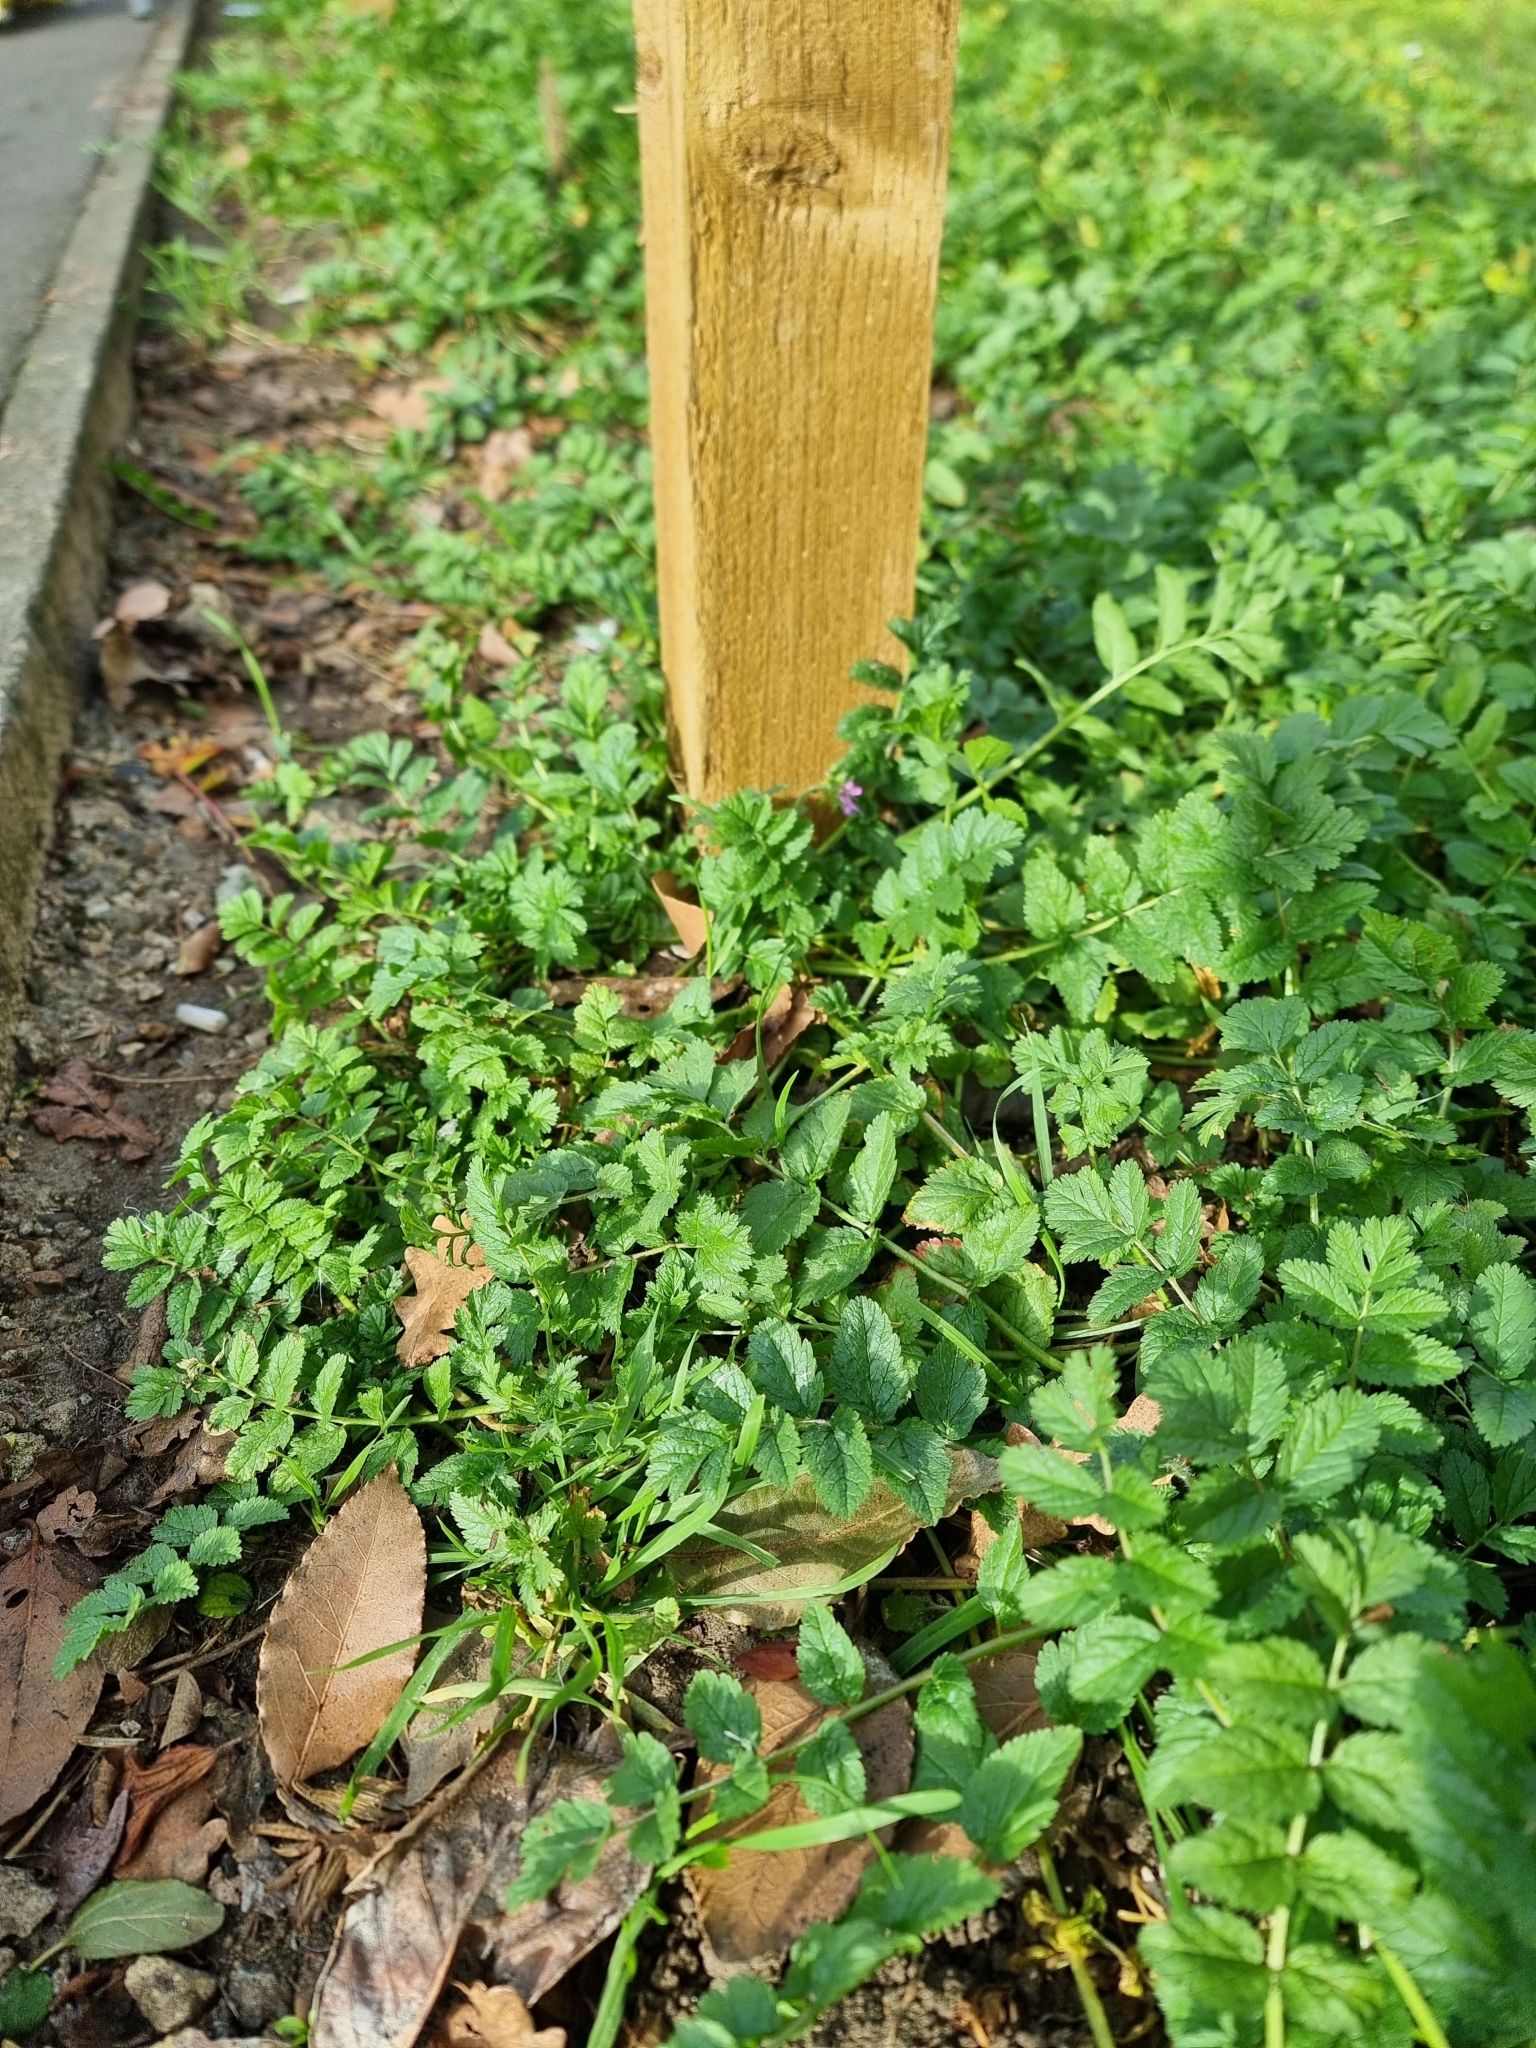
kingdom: Plantae
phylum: Tracheophyta
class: Magnoliopsida
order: Geraniales
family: Geraniaceae
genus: Erodium
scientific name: Erodium moschatum
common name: Musk stork's-bill
